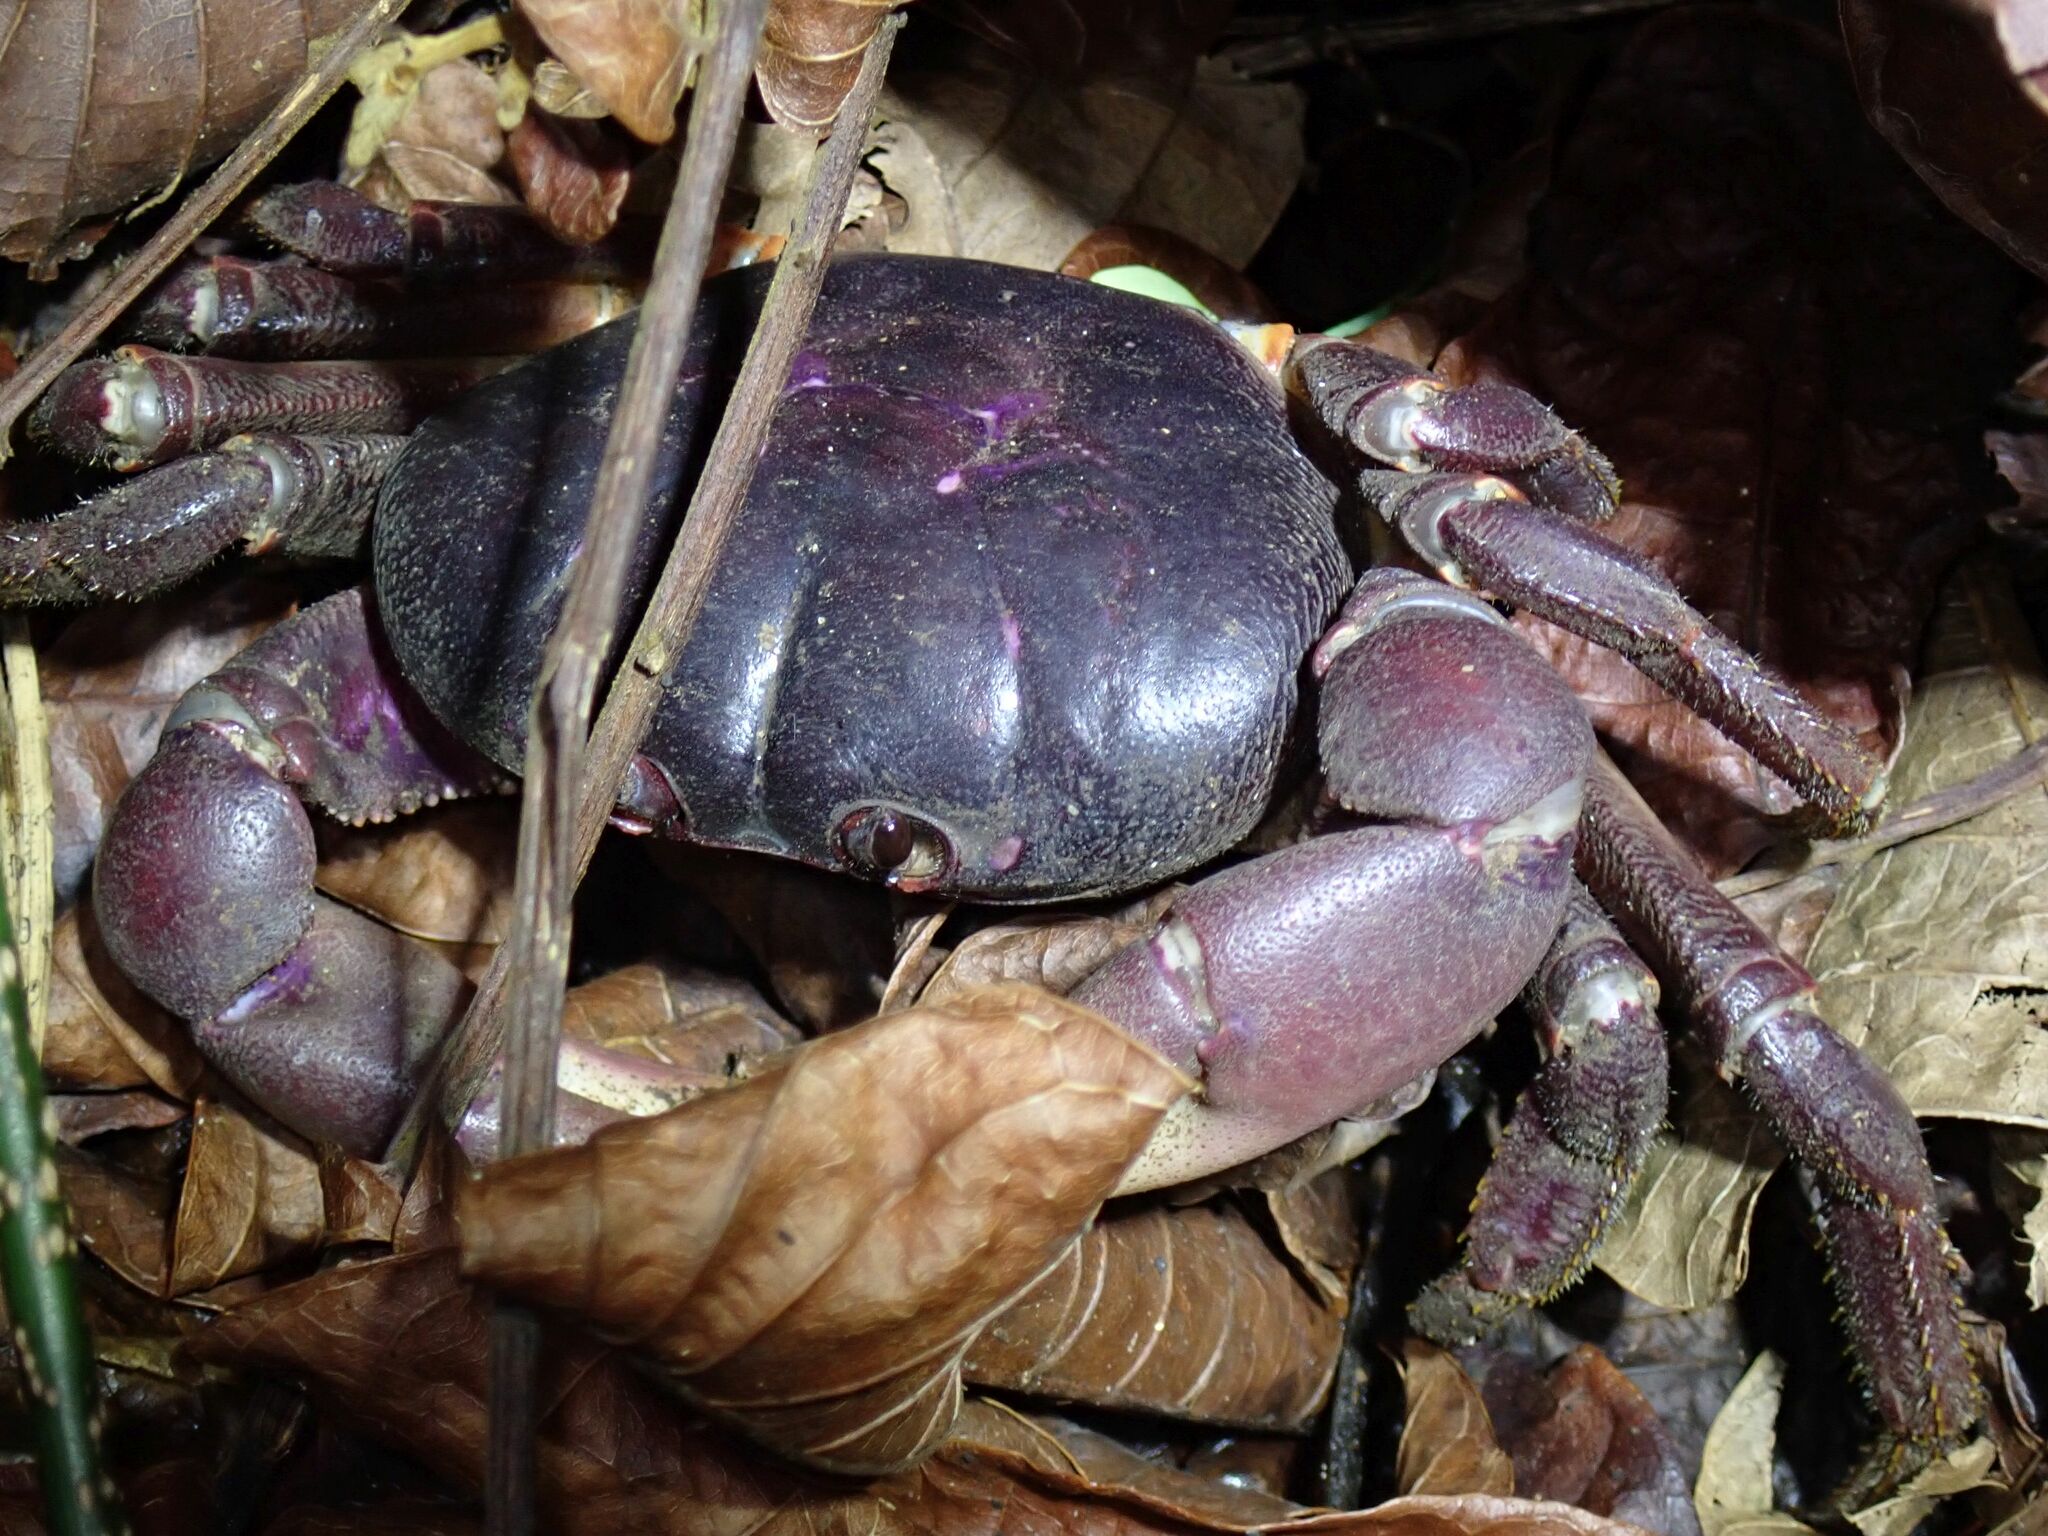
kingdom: Animalia
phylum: Arthropoda
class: Malacostraca
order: Decapoda
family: Gecarcinidae
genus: Gecarcoidea
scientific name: Gecarcoidea lalandii
